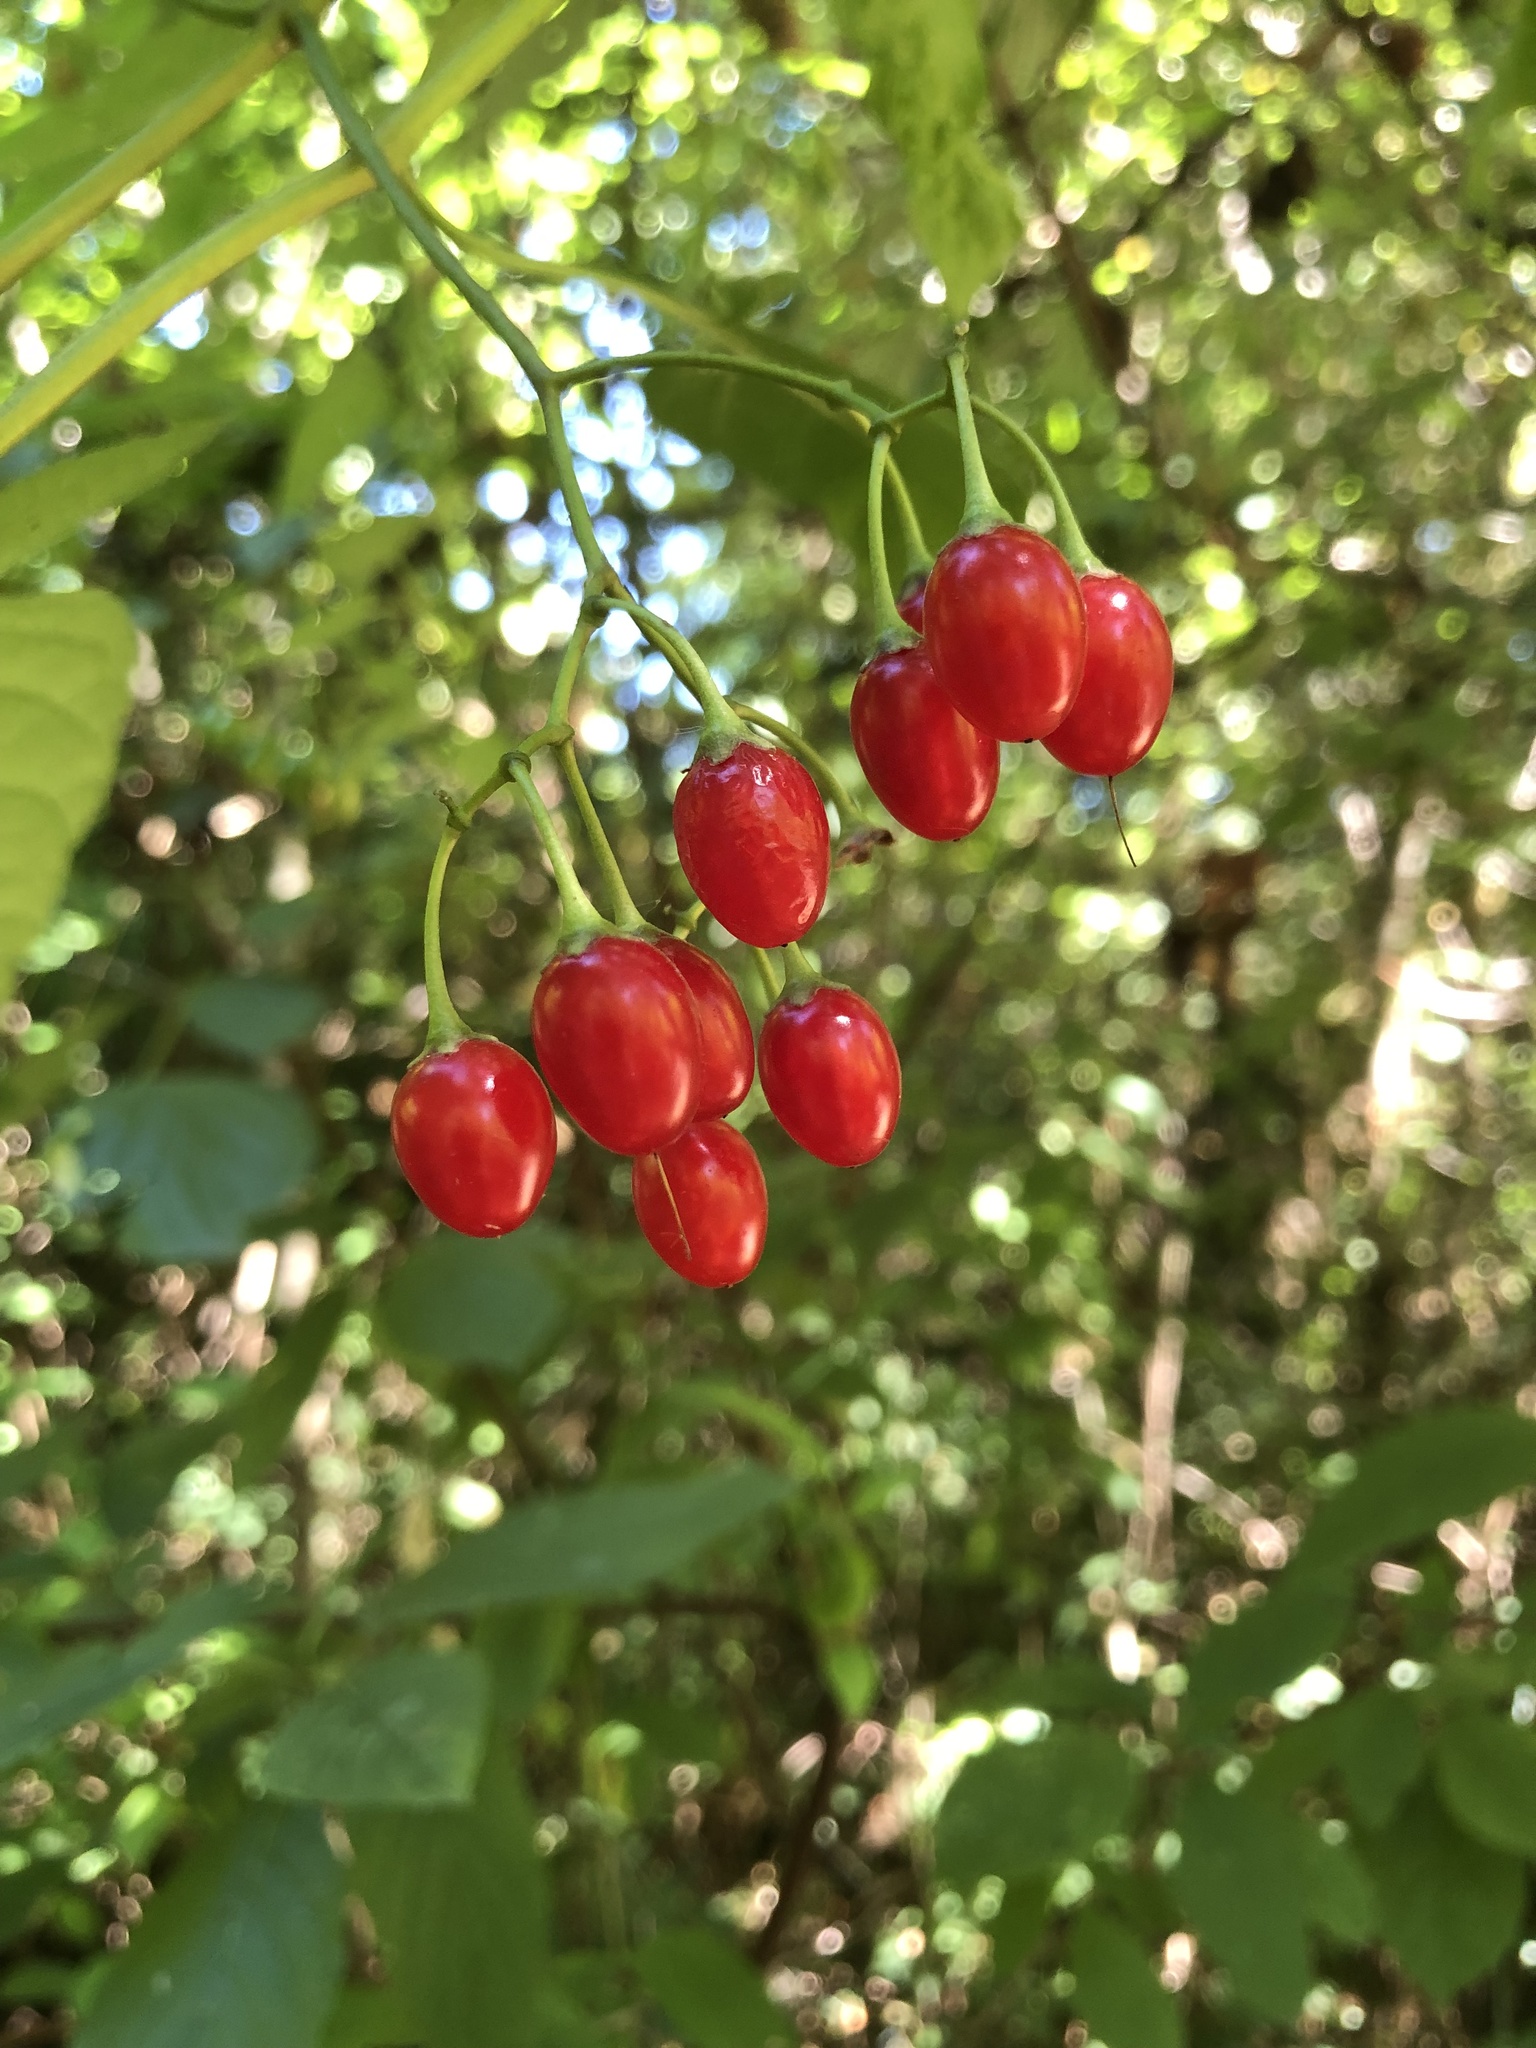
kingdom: Plantae
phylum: Tracheophyta
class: Magnoliopsida
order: Solanales
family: Solanaceae
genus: Solanum
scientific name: Solanum dulcamara
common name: Climbing nightshade
